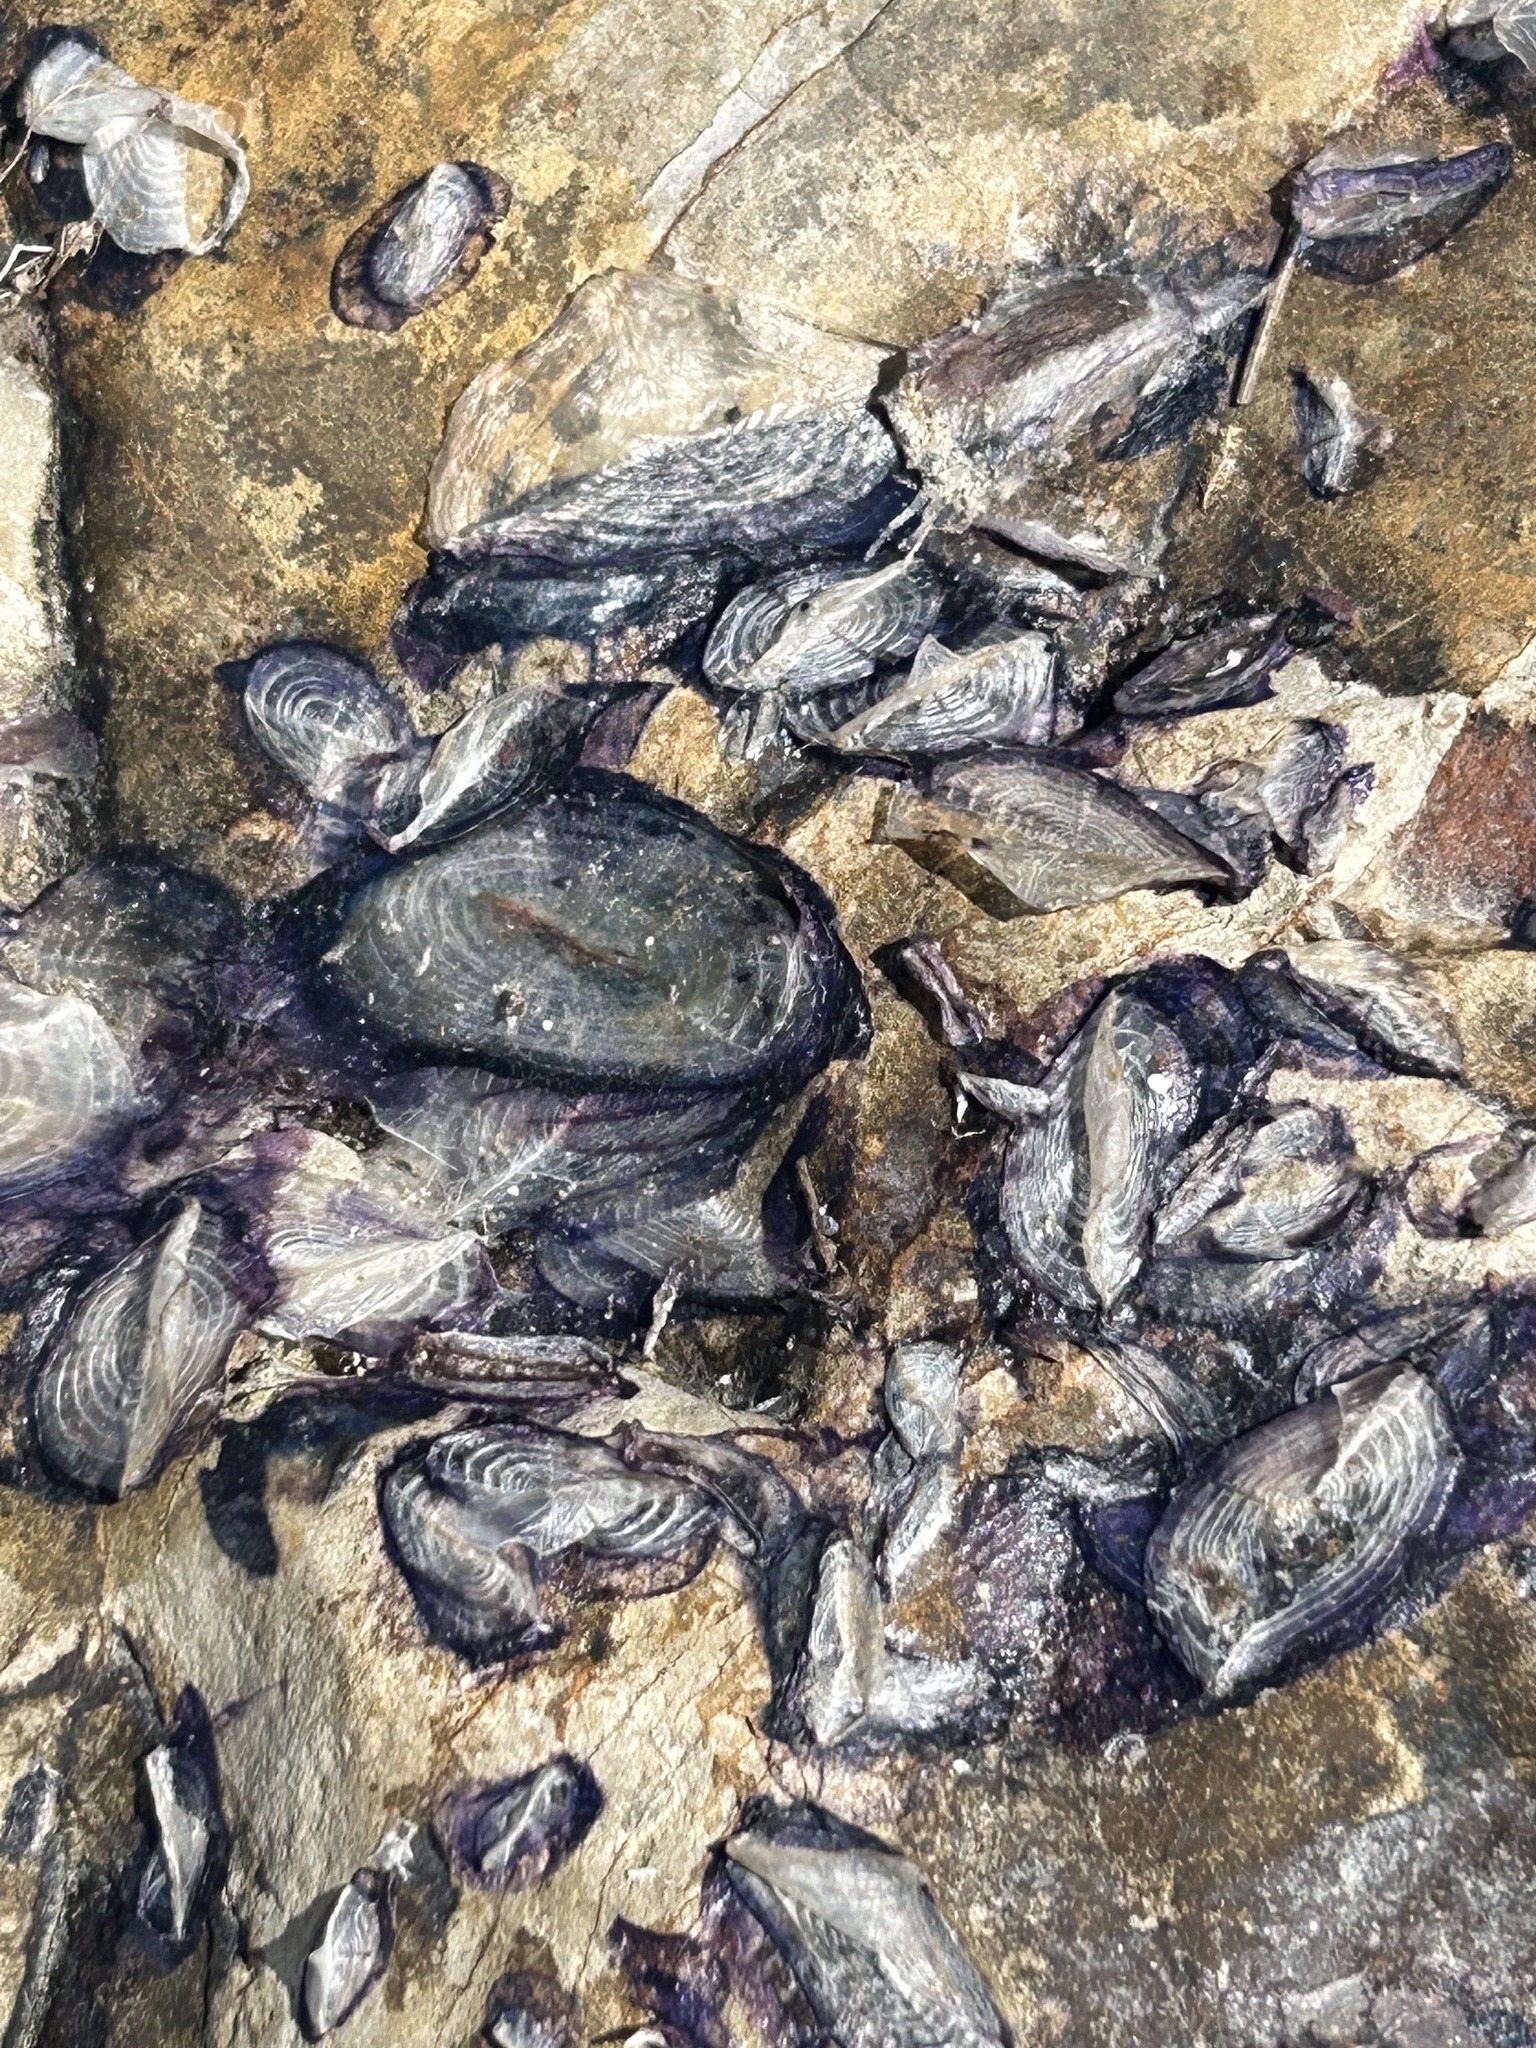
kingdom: Animalia
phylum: Cnidaria
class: Hydrozoa
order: Anthoathecata
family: Porpitidae
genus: Velella
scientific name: Velella velella
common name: By-the-wind-sailor
